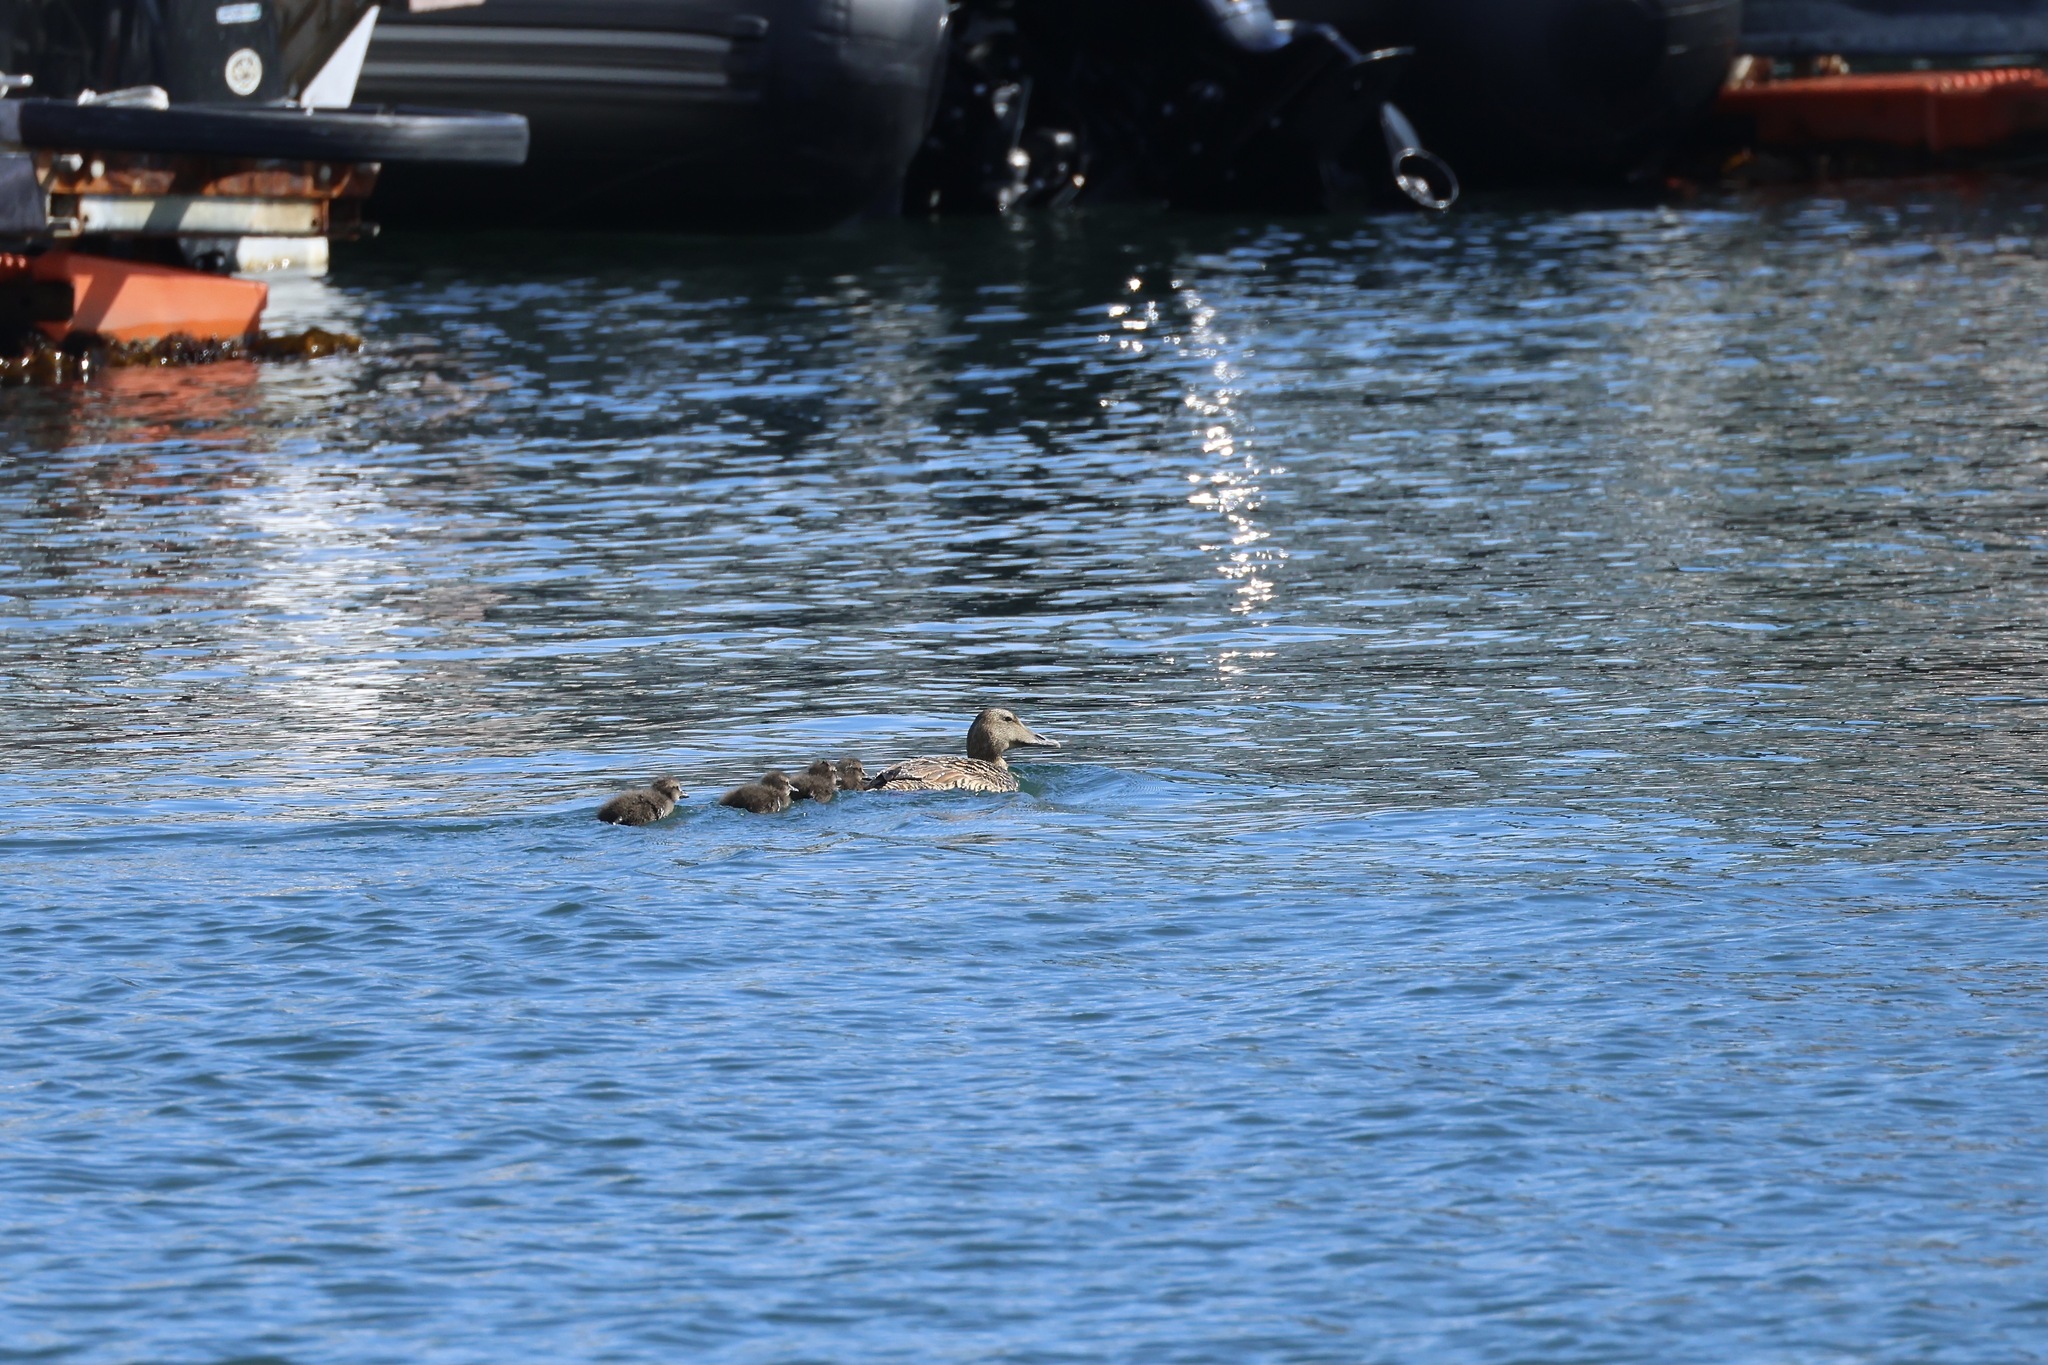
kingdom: Animalia
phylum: Chordata
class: Aves
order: Anseriformes
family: Anatidae
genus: Somateria
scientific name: Somateria mollissima
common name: Common eider
